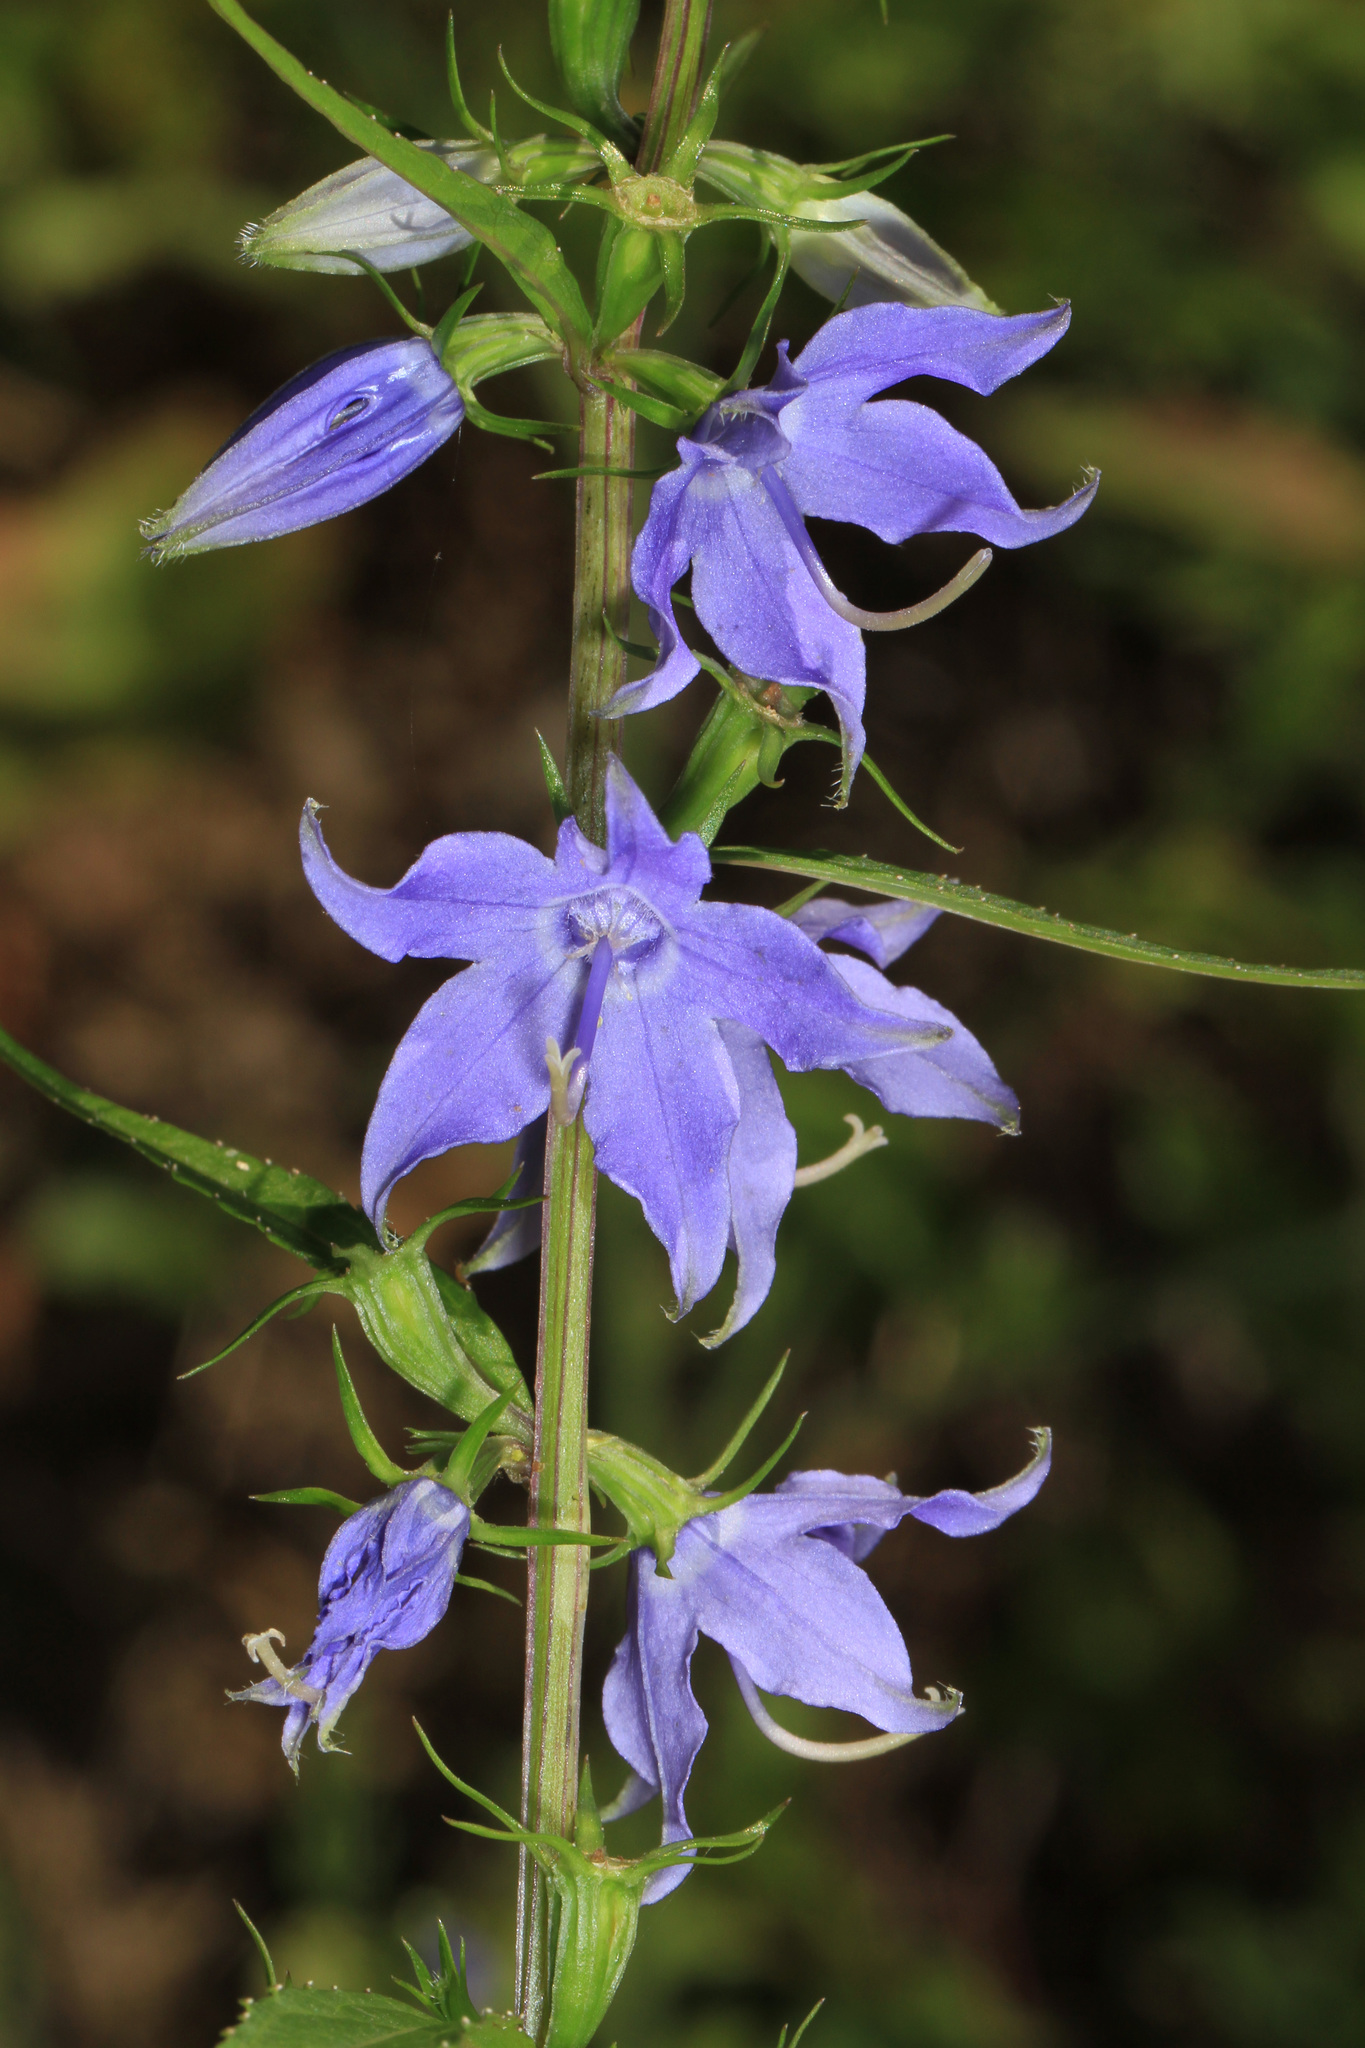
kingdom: Plantae
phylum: Tracheophyta
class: Magnoliopsida
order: Asterales
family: Campanulaceae
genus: Campanulastrum
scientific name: Campanulastrum americanum
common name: American bellflower
